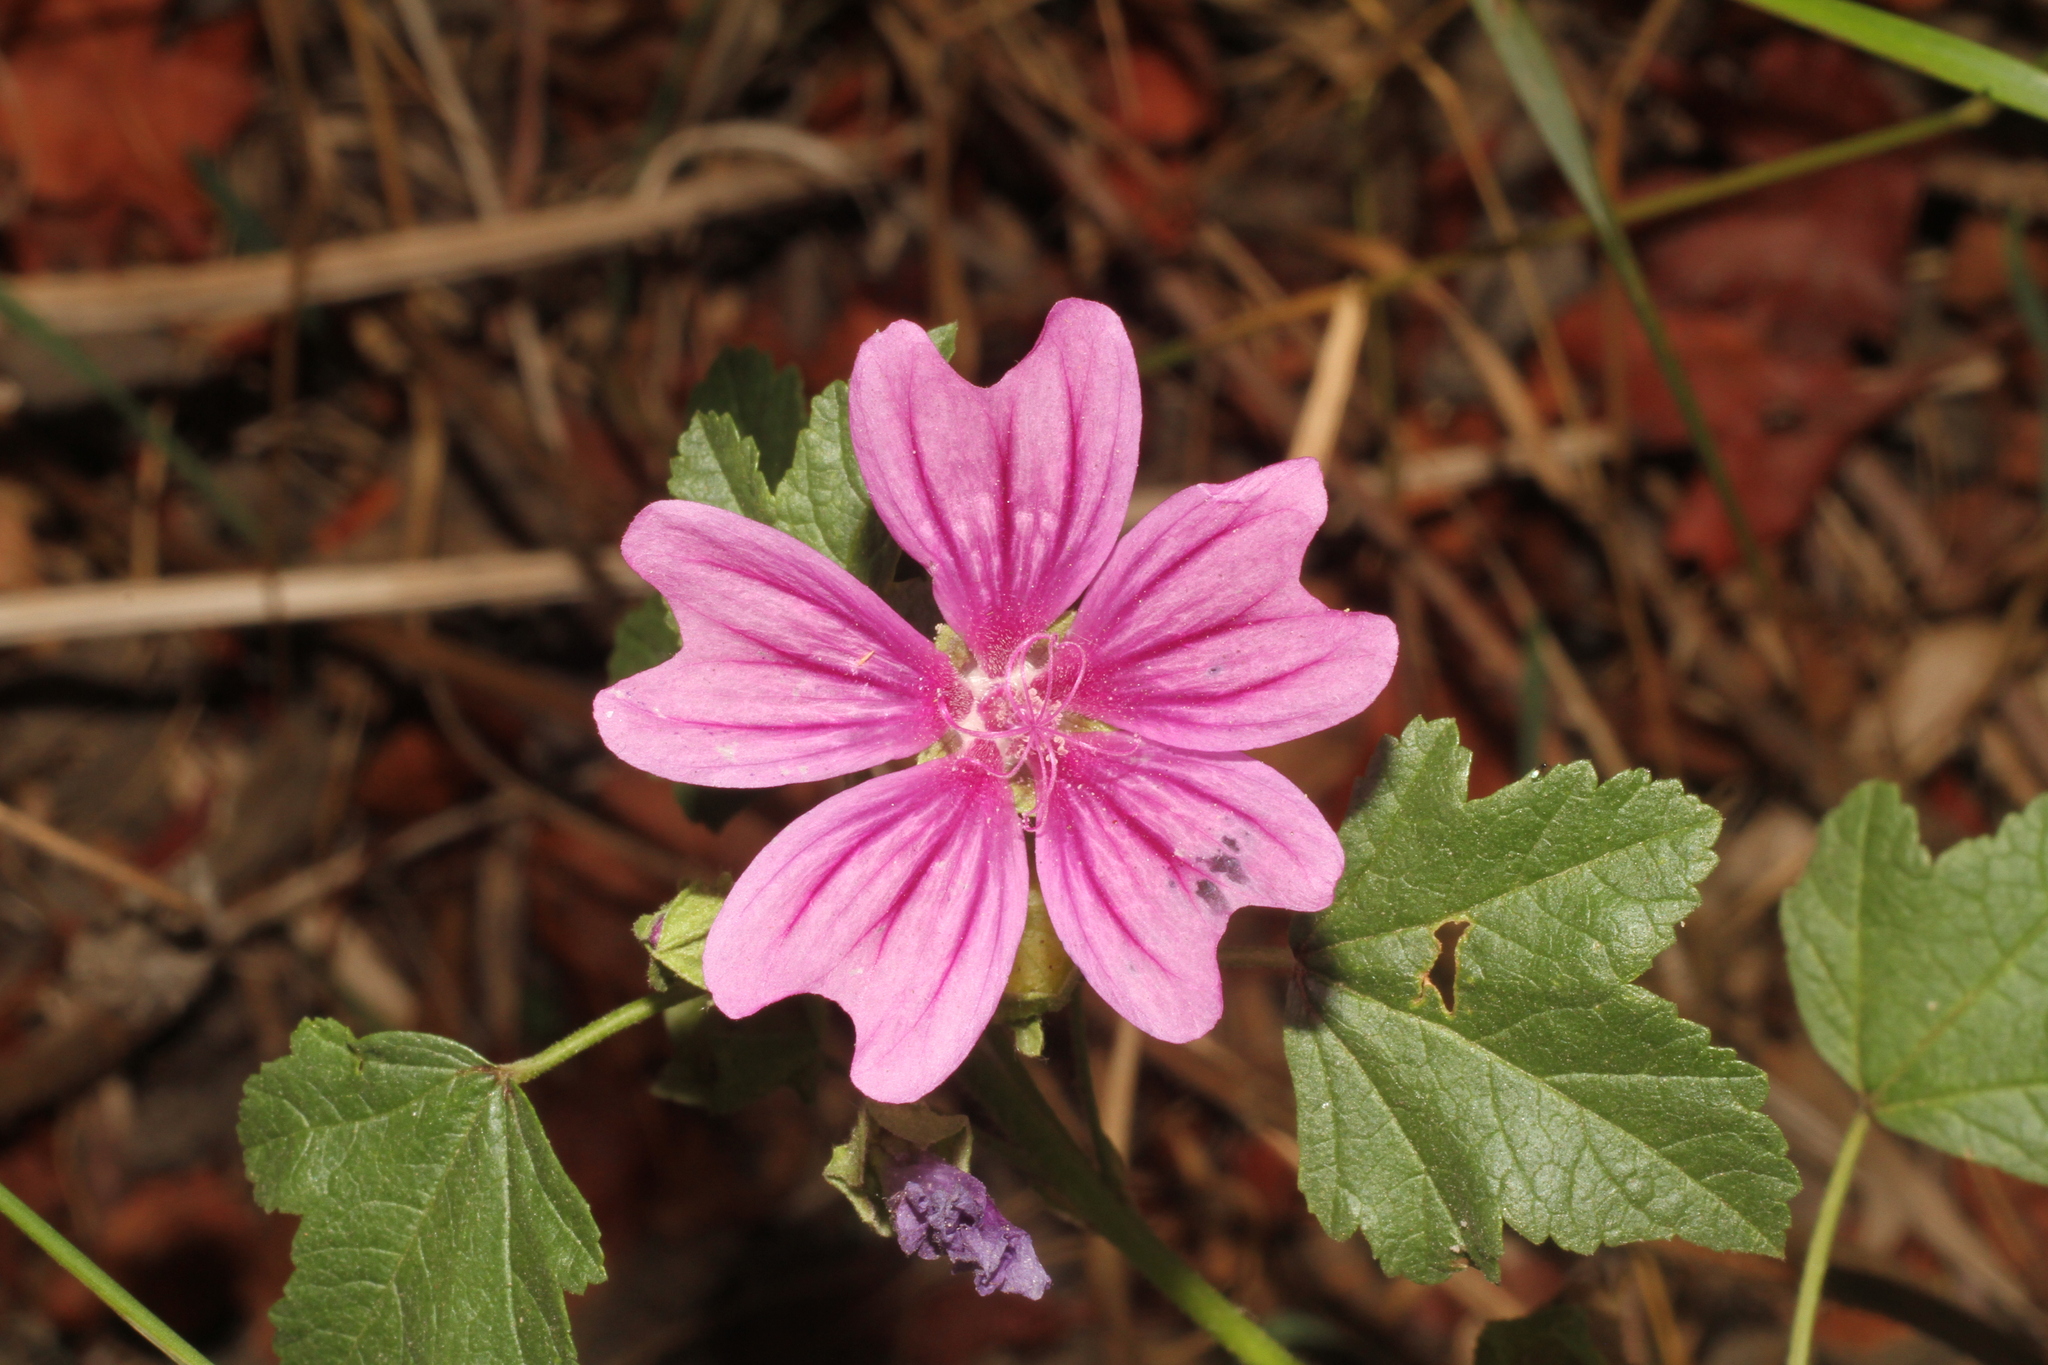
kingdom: Plantae
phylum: Tracheophyta
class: Magnoliopsida
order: Malvales
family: Malvaceae
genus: Malva
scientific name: Malva sylvestris
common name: Common mallow
